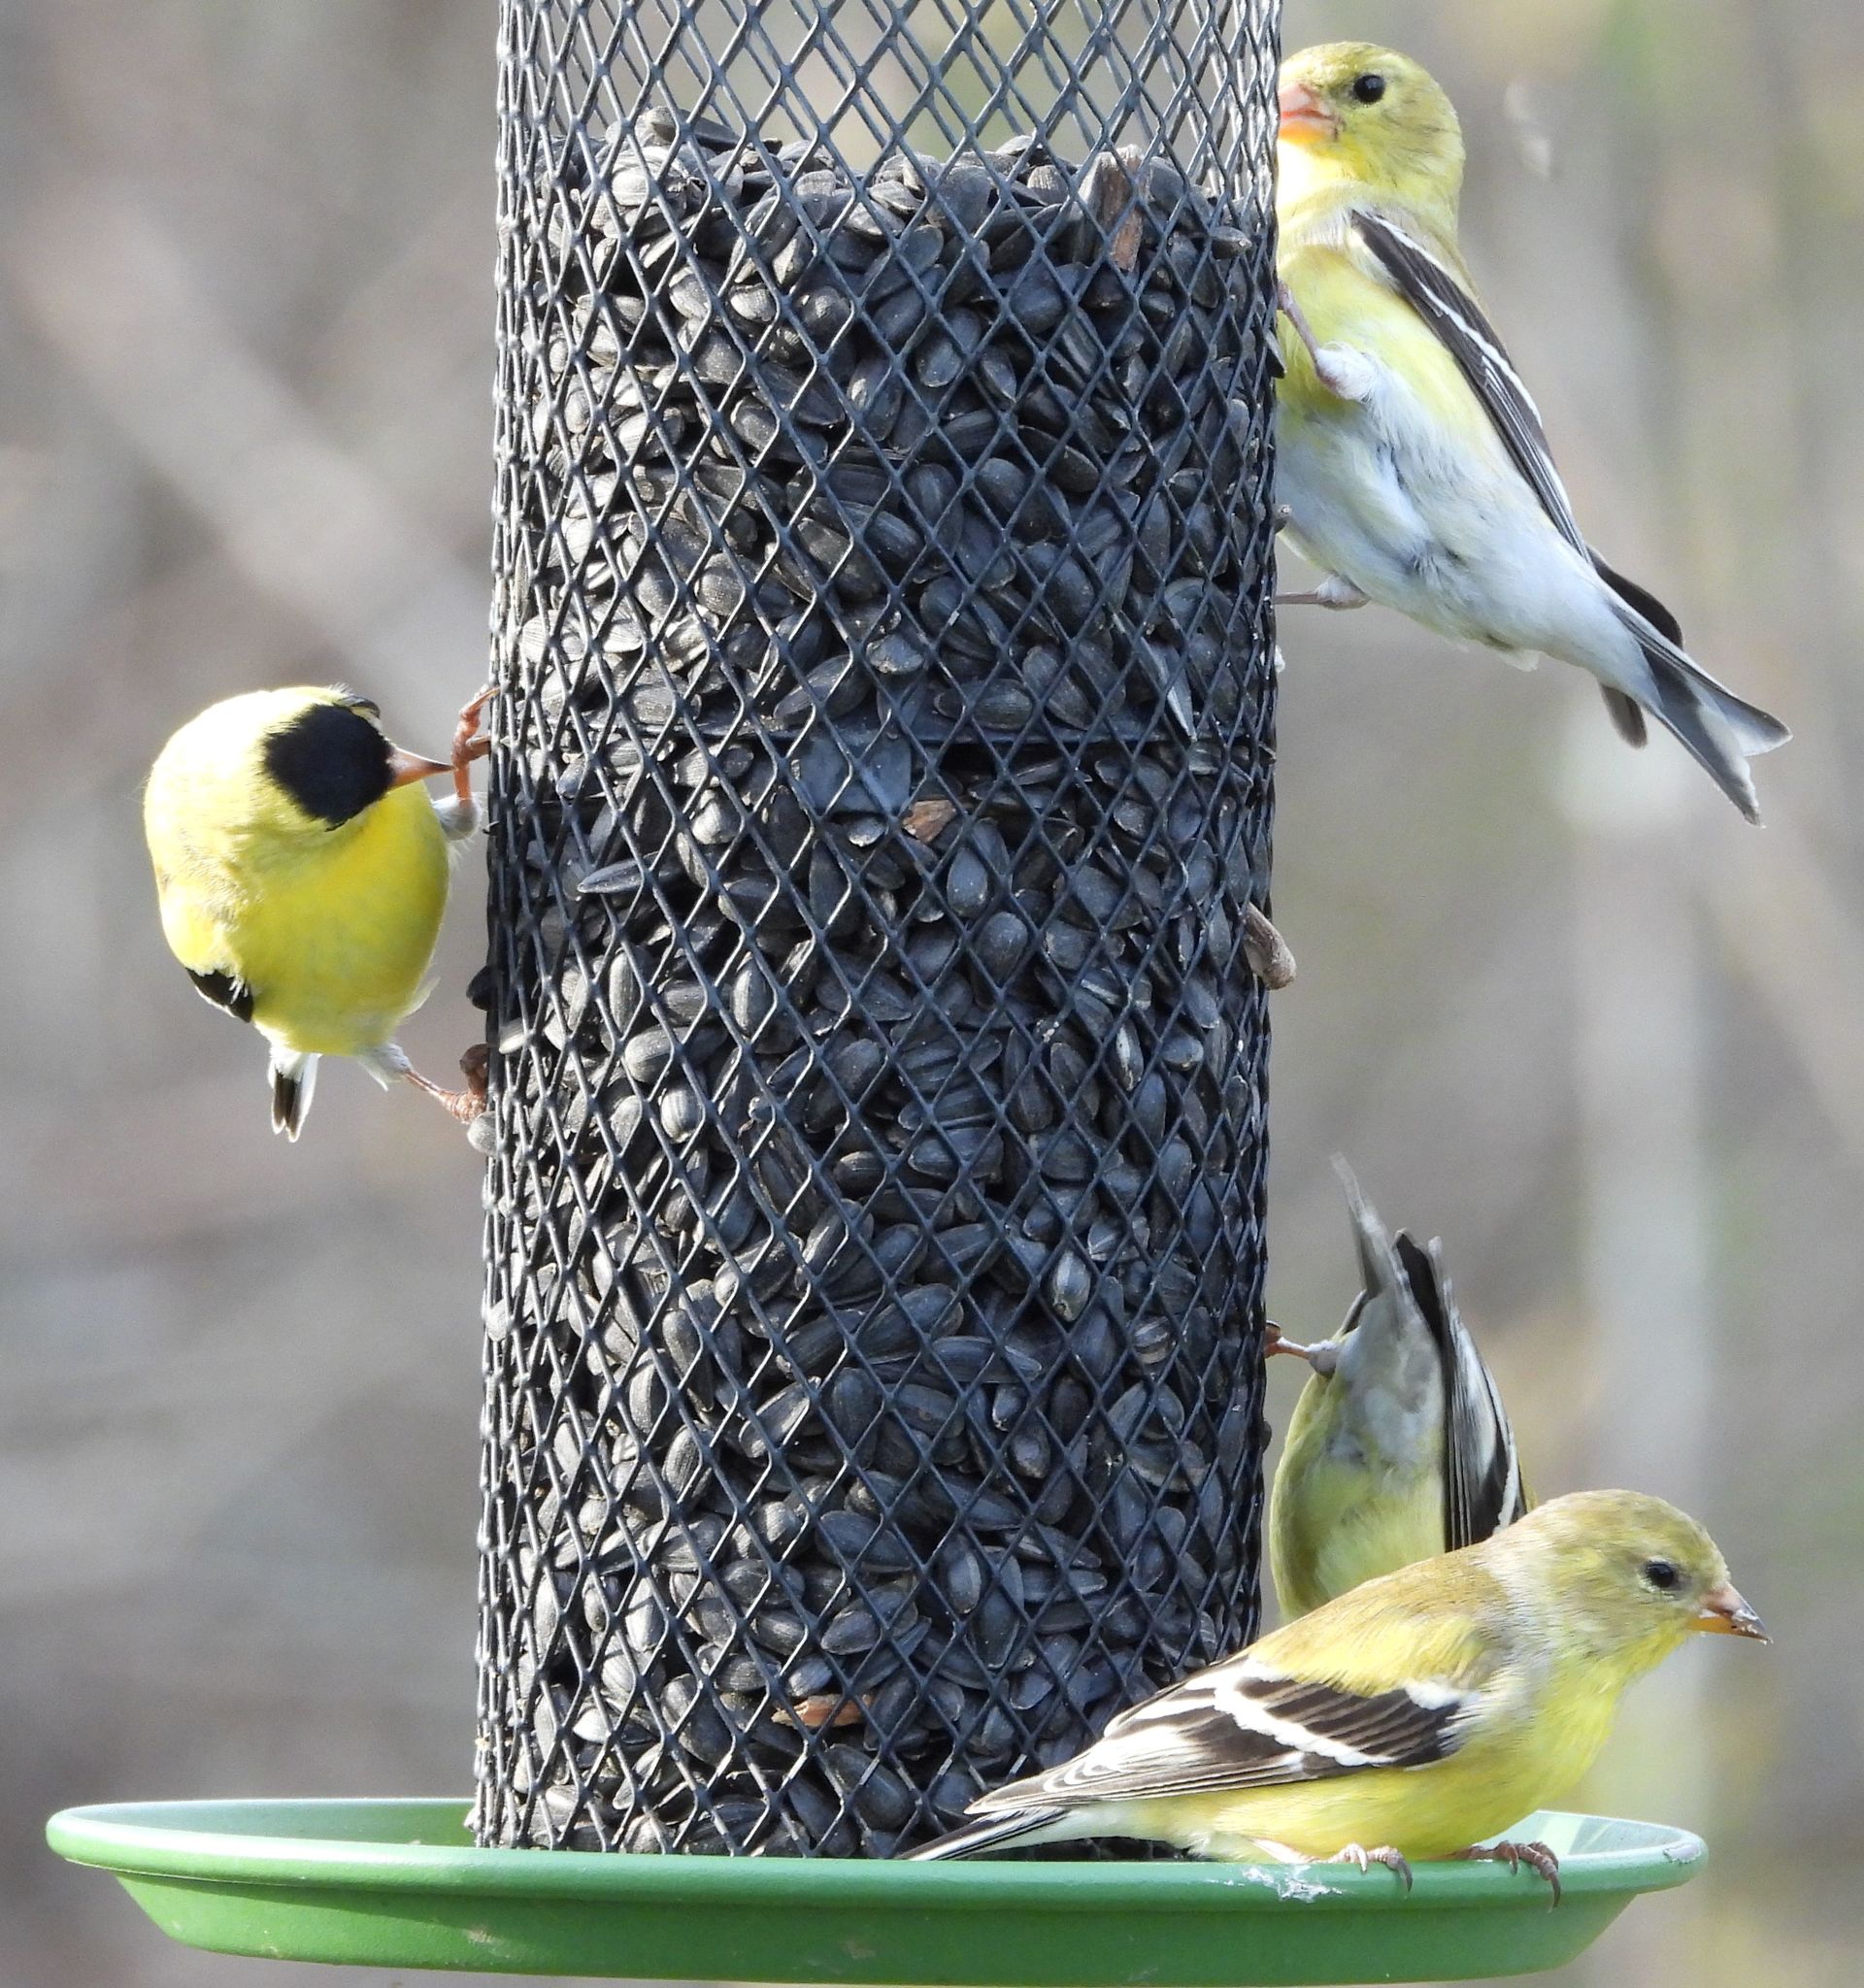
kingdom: Animalia
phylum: Chordata
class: Aves
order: Passeriformes
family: Fringillidae
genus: Spinus
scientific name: Spinus tristis
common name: American goldfinch
